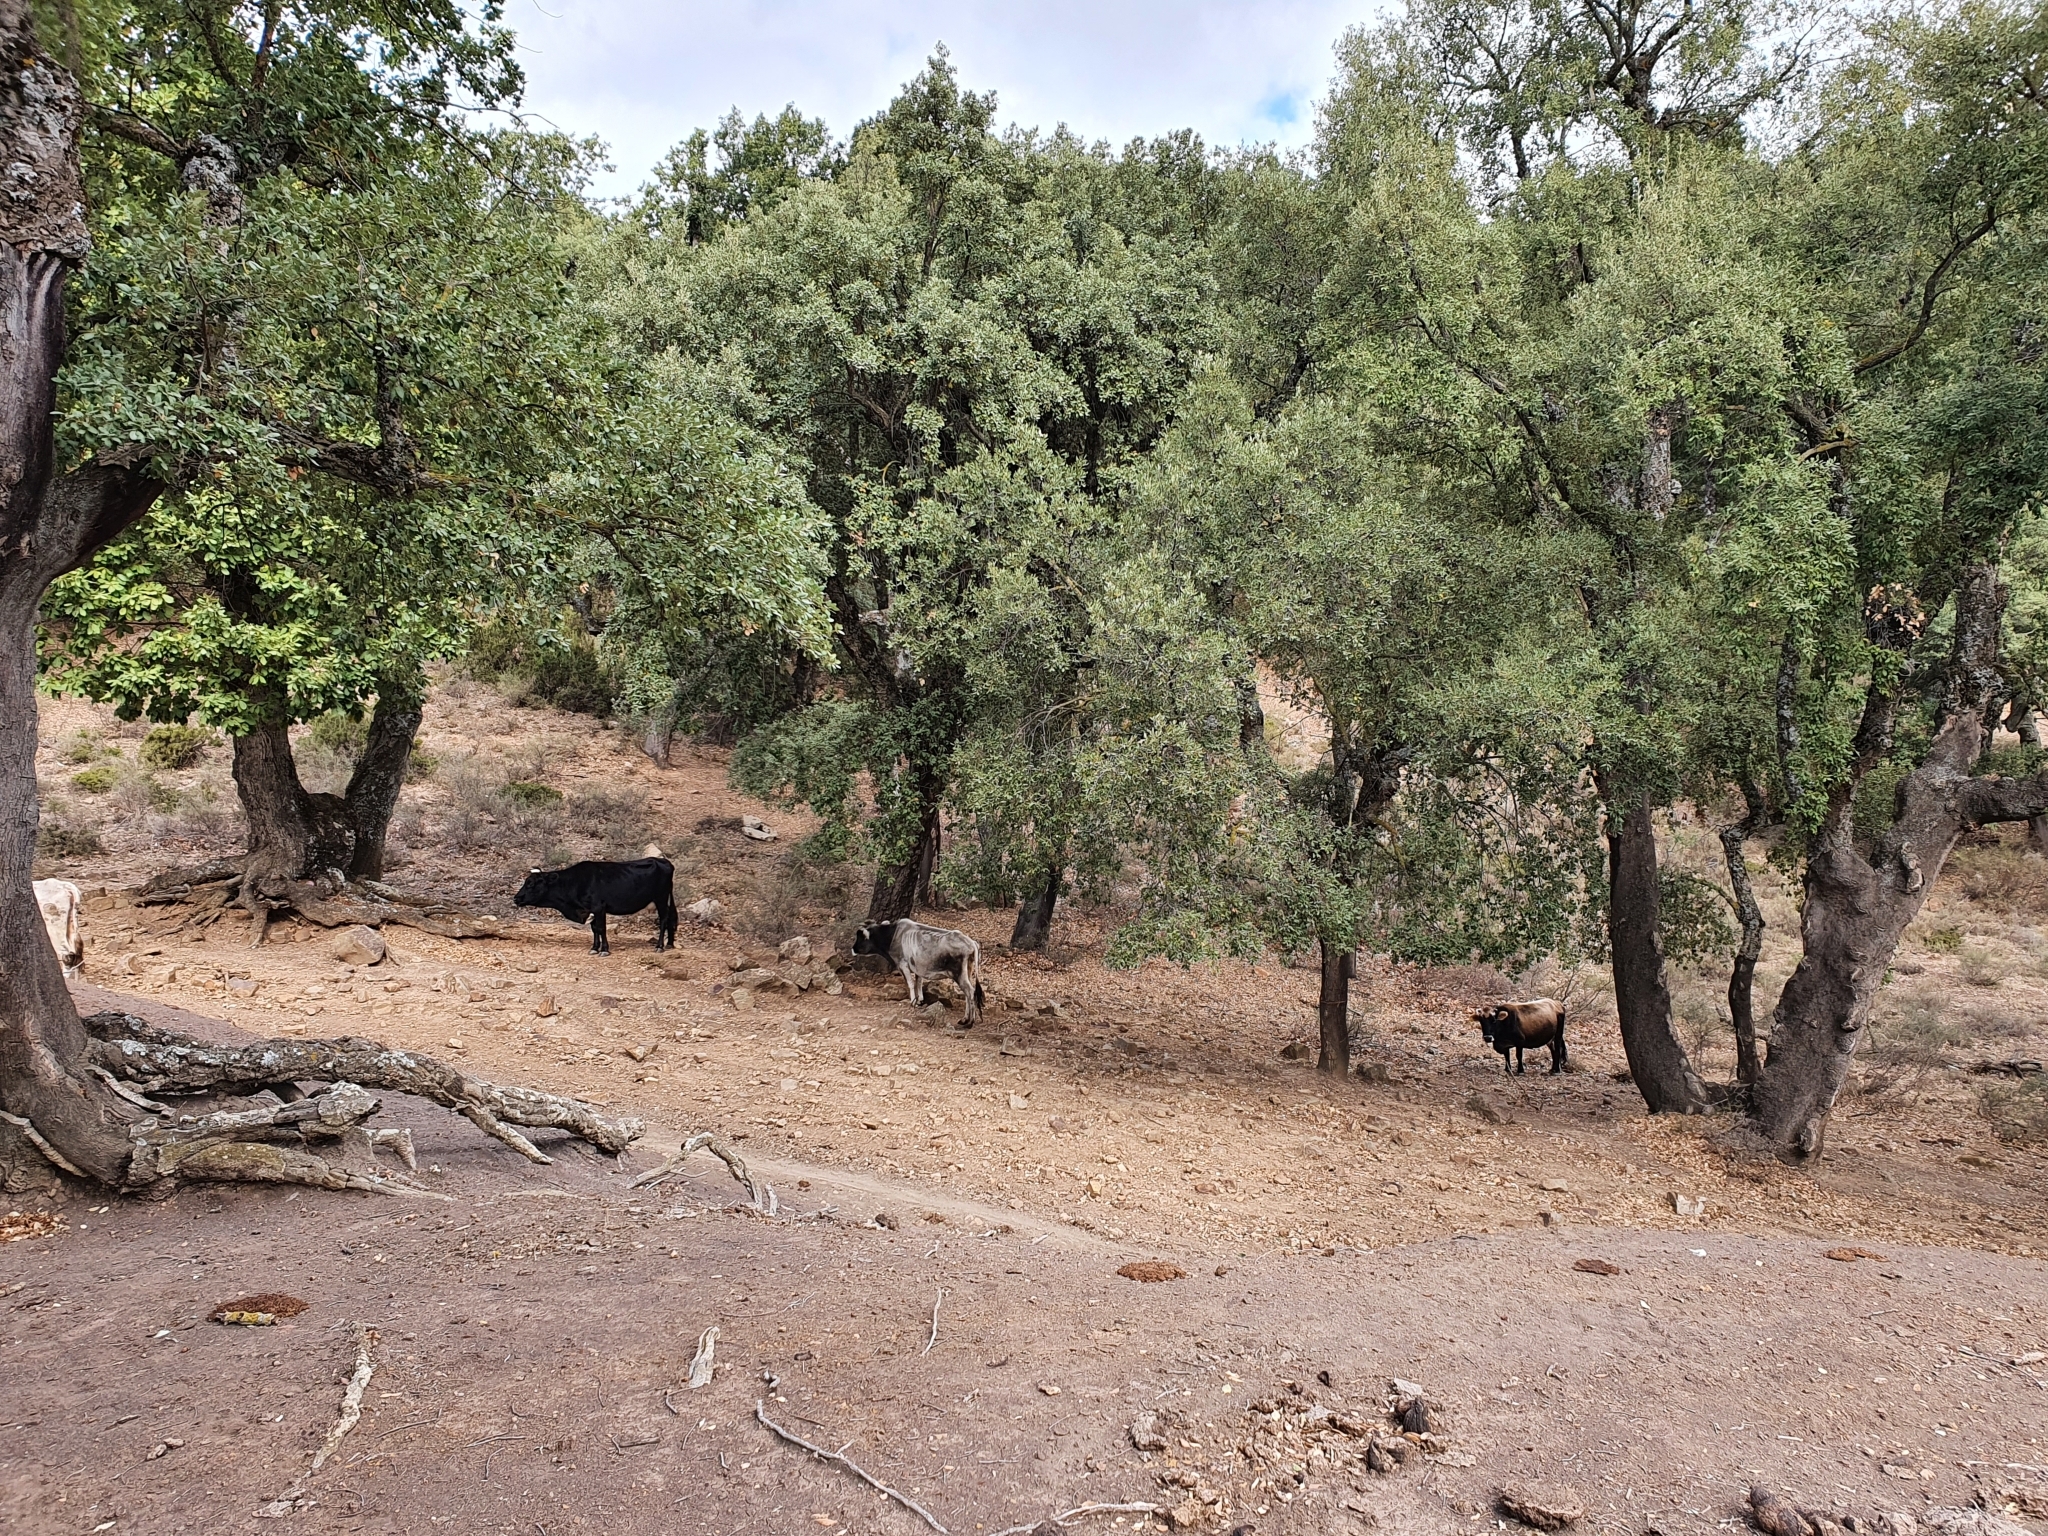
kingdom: Plantae
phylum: Tracheophyta
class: Magnoliopsida
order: Fagales
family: Fagaceae
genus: Quercus
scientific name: Quercus suber
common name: Cork oak
